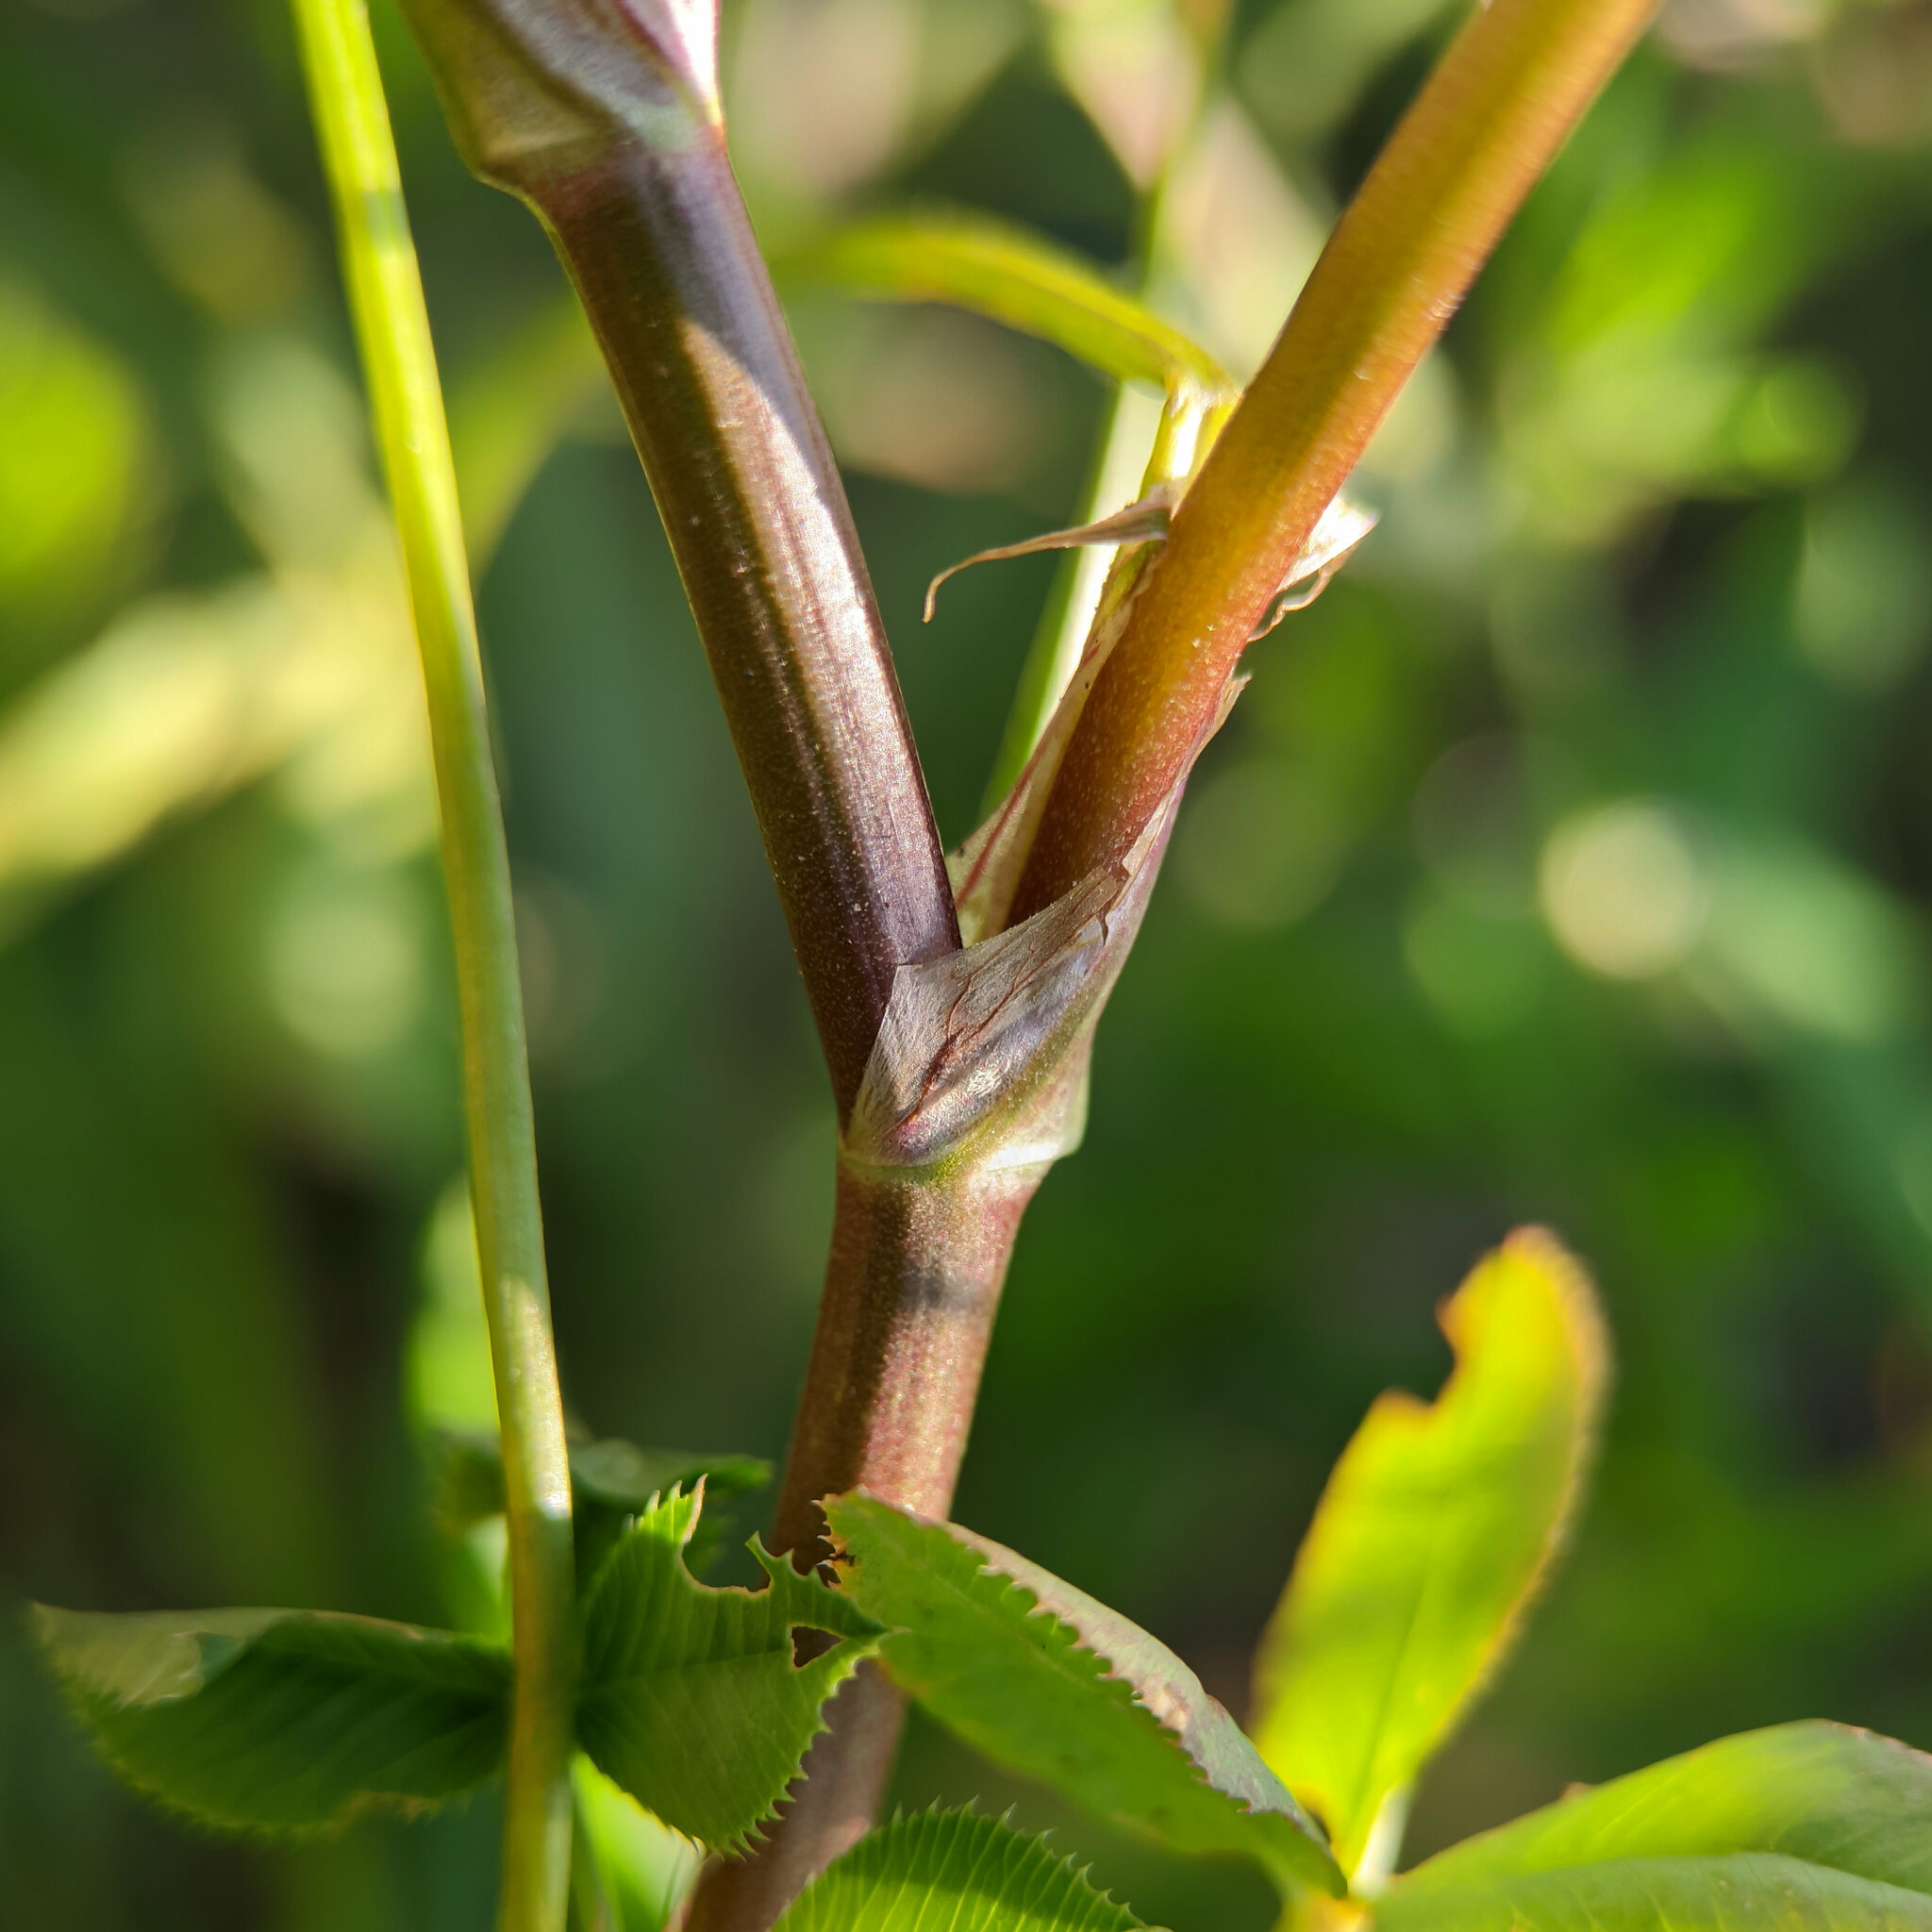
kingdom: Plantae
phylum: Tracheophyta
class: Magnoliopsida
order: Fabales
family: Fabaceae
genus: Trifolium
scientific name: Trifolium resupinatum
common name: Reversed clover
